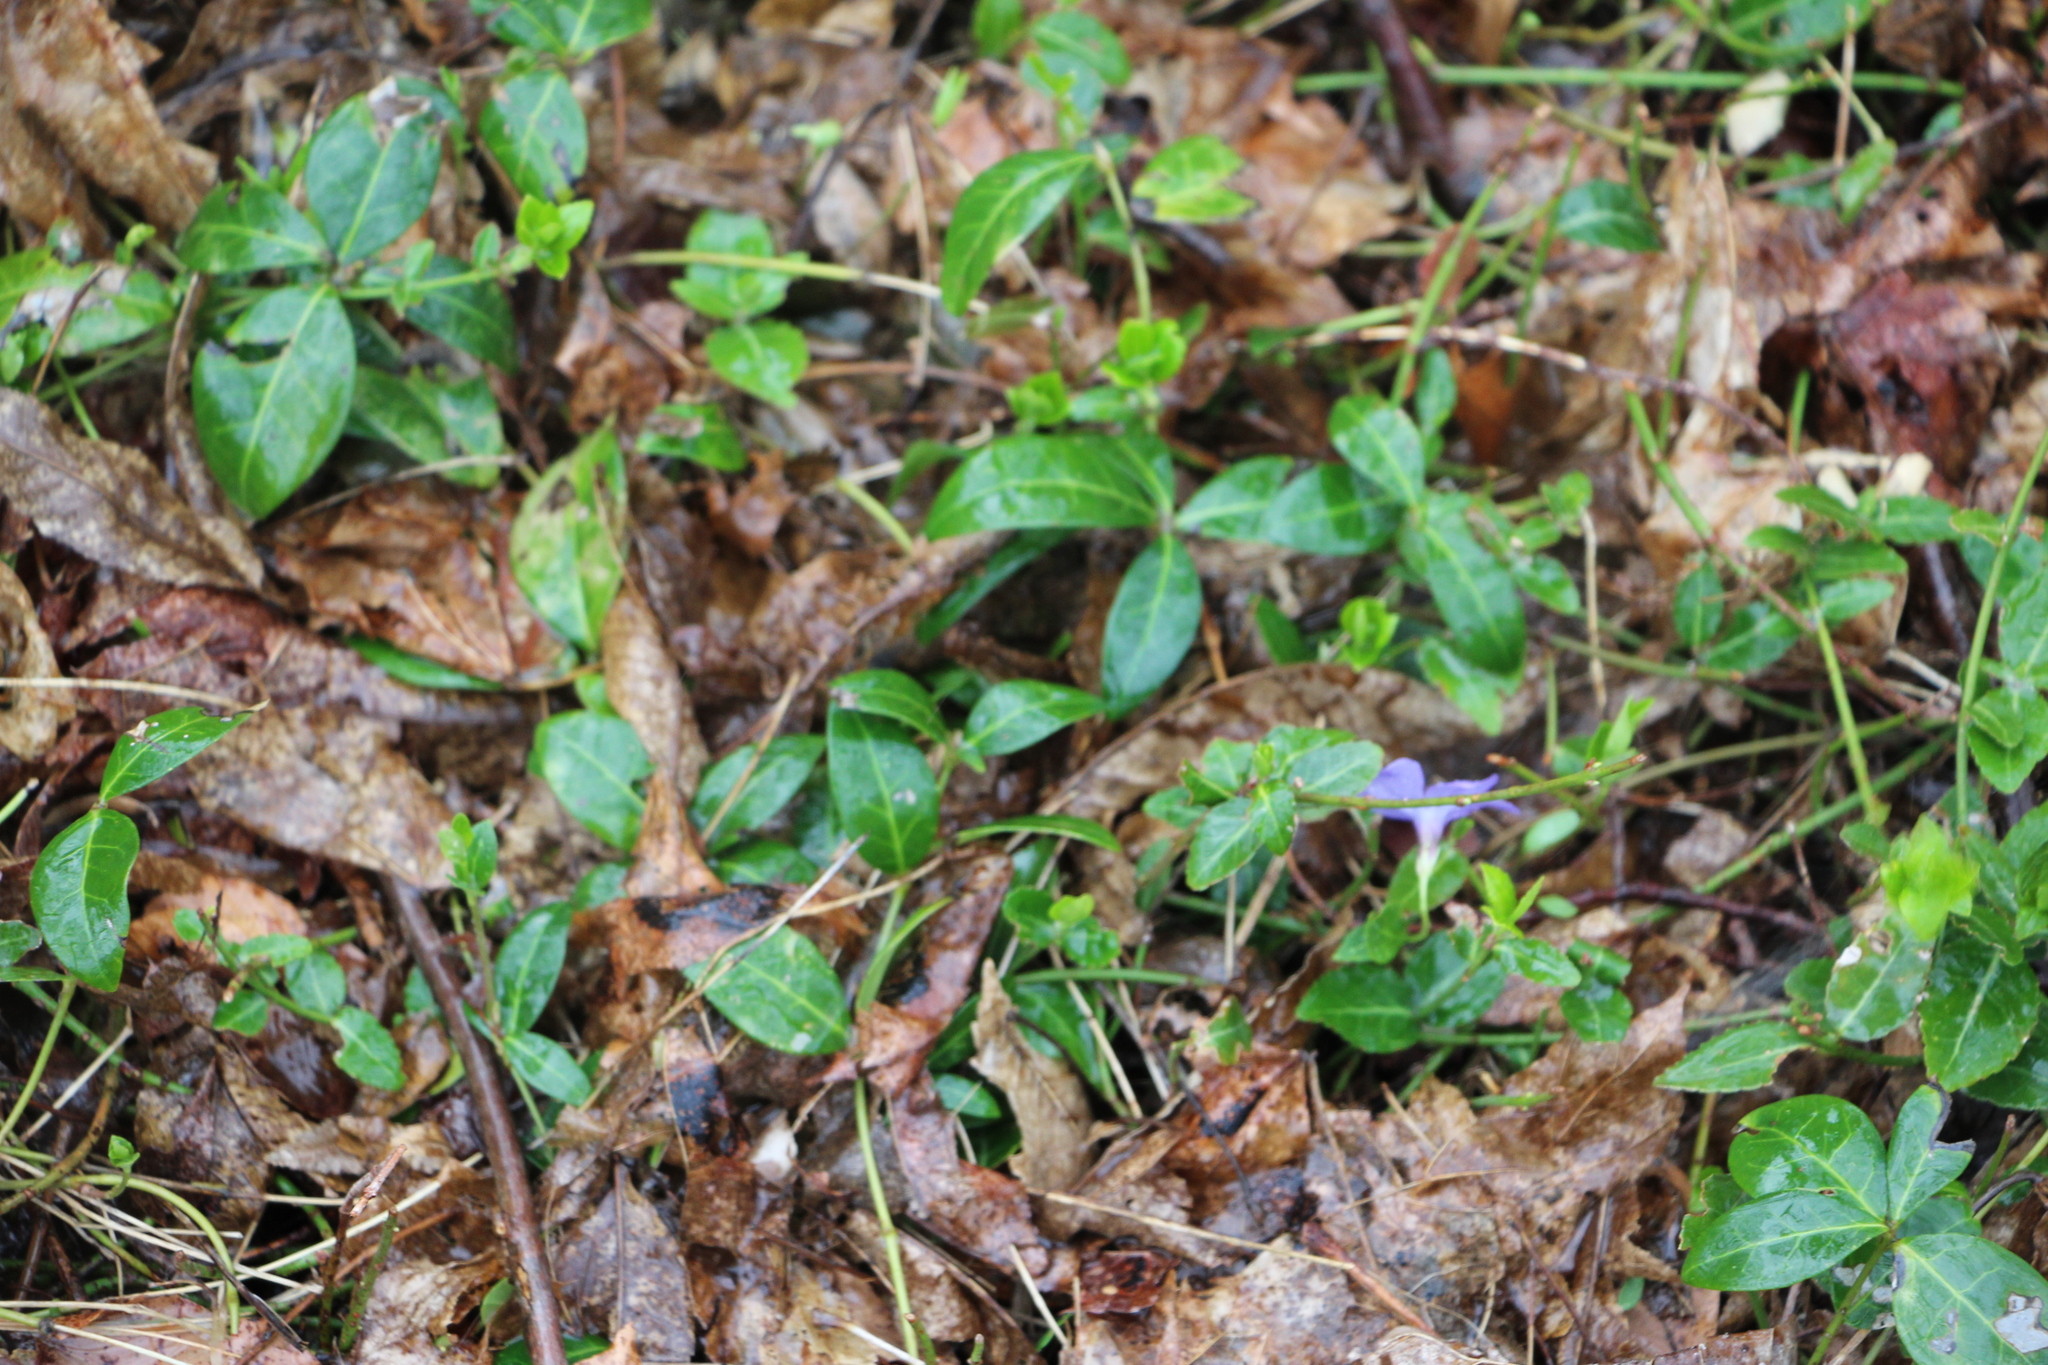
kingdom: Plantae
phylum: Tracheophyta
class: Magnoliopsida
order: Gentianales
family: Apocynaceae
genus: Vinca
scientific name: Vinca minor
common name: Lesser periwinkle
